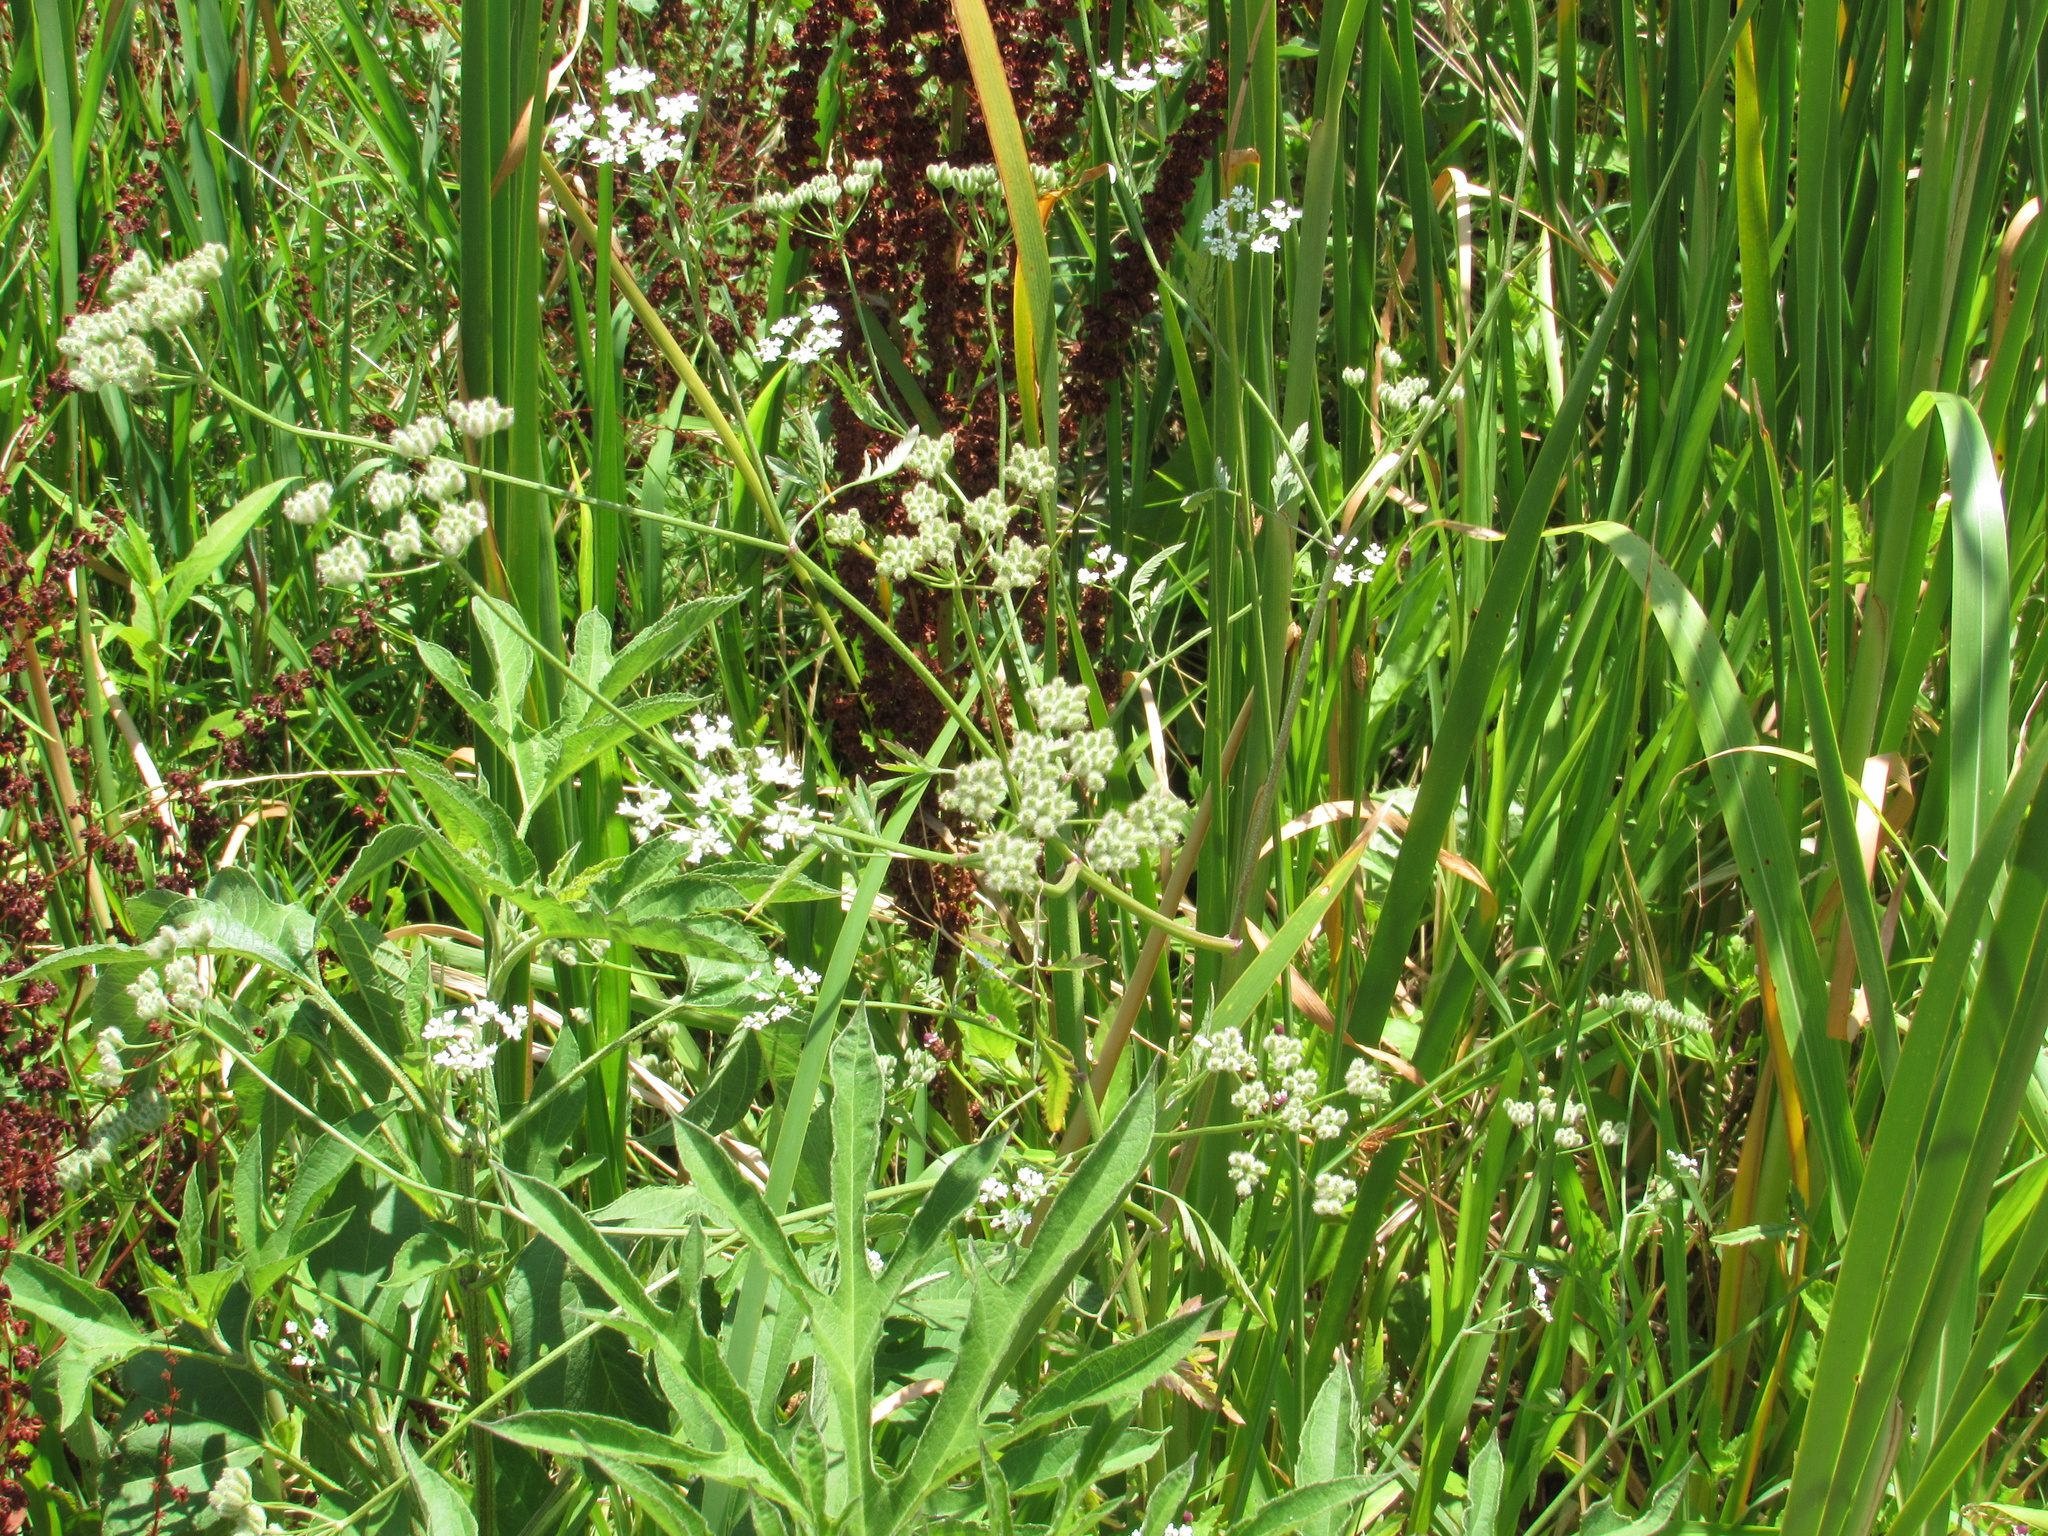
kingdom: Plantae
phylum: Tracheophyta
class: Magnoliopsida
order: Apiales
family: Apiaceae
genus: Torilis
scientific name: Torilis arvensis
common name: Spreading hedge-parsley
